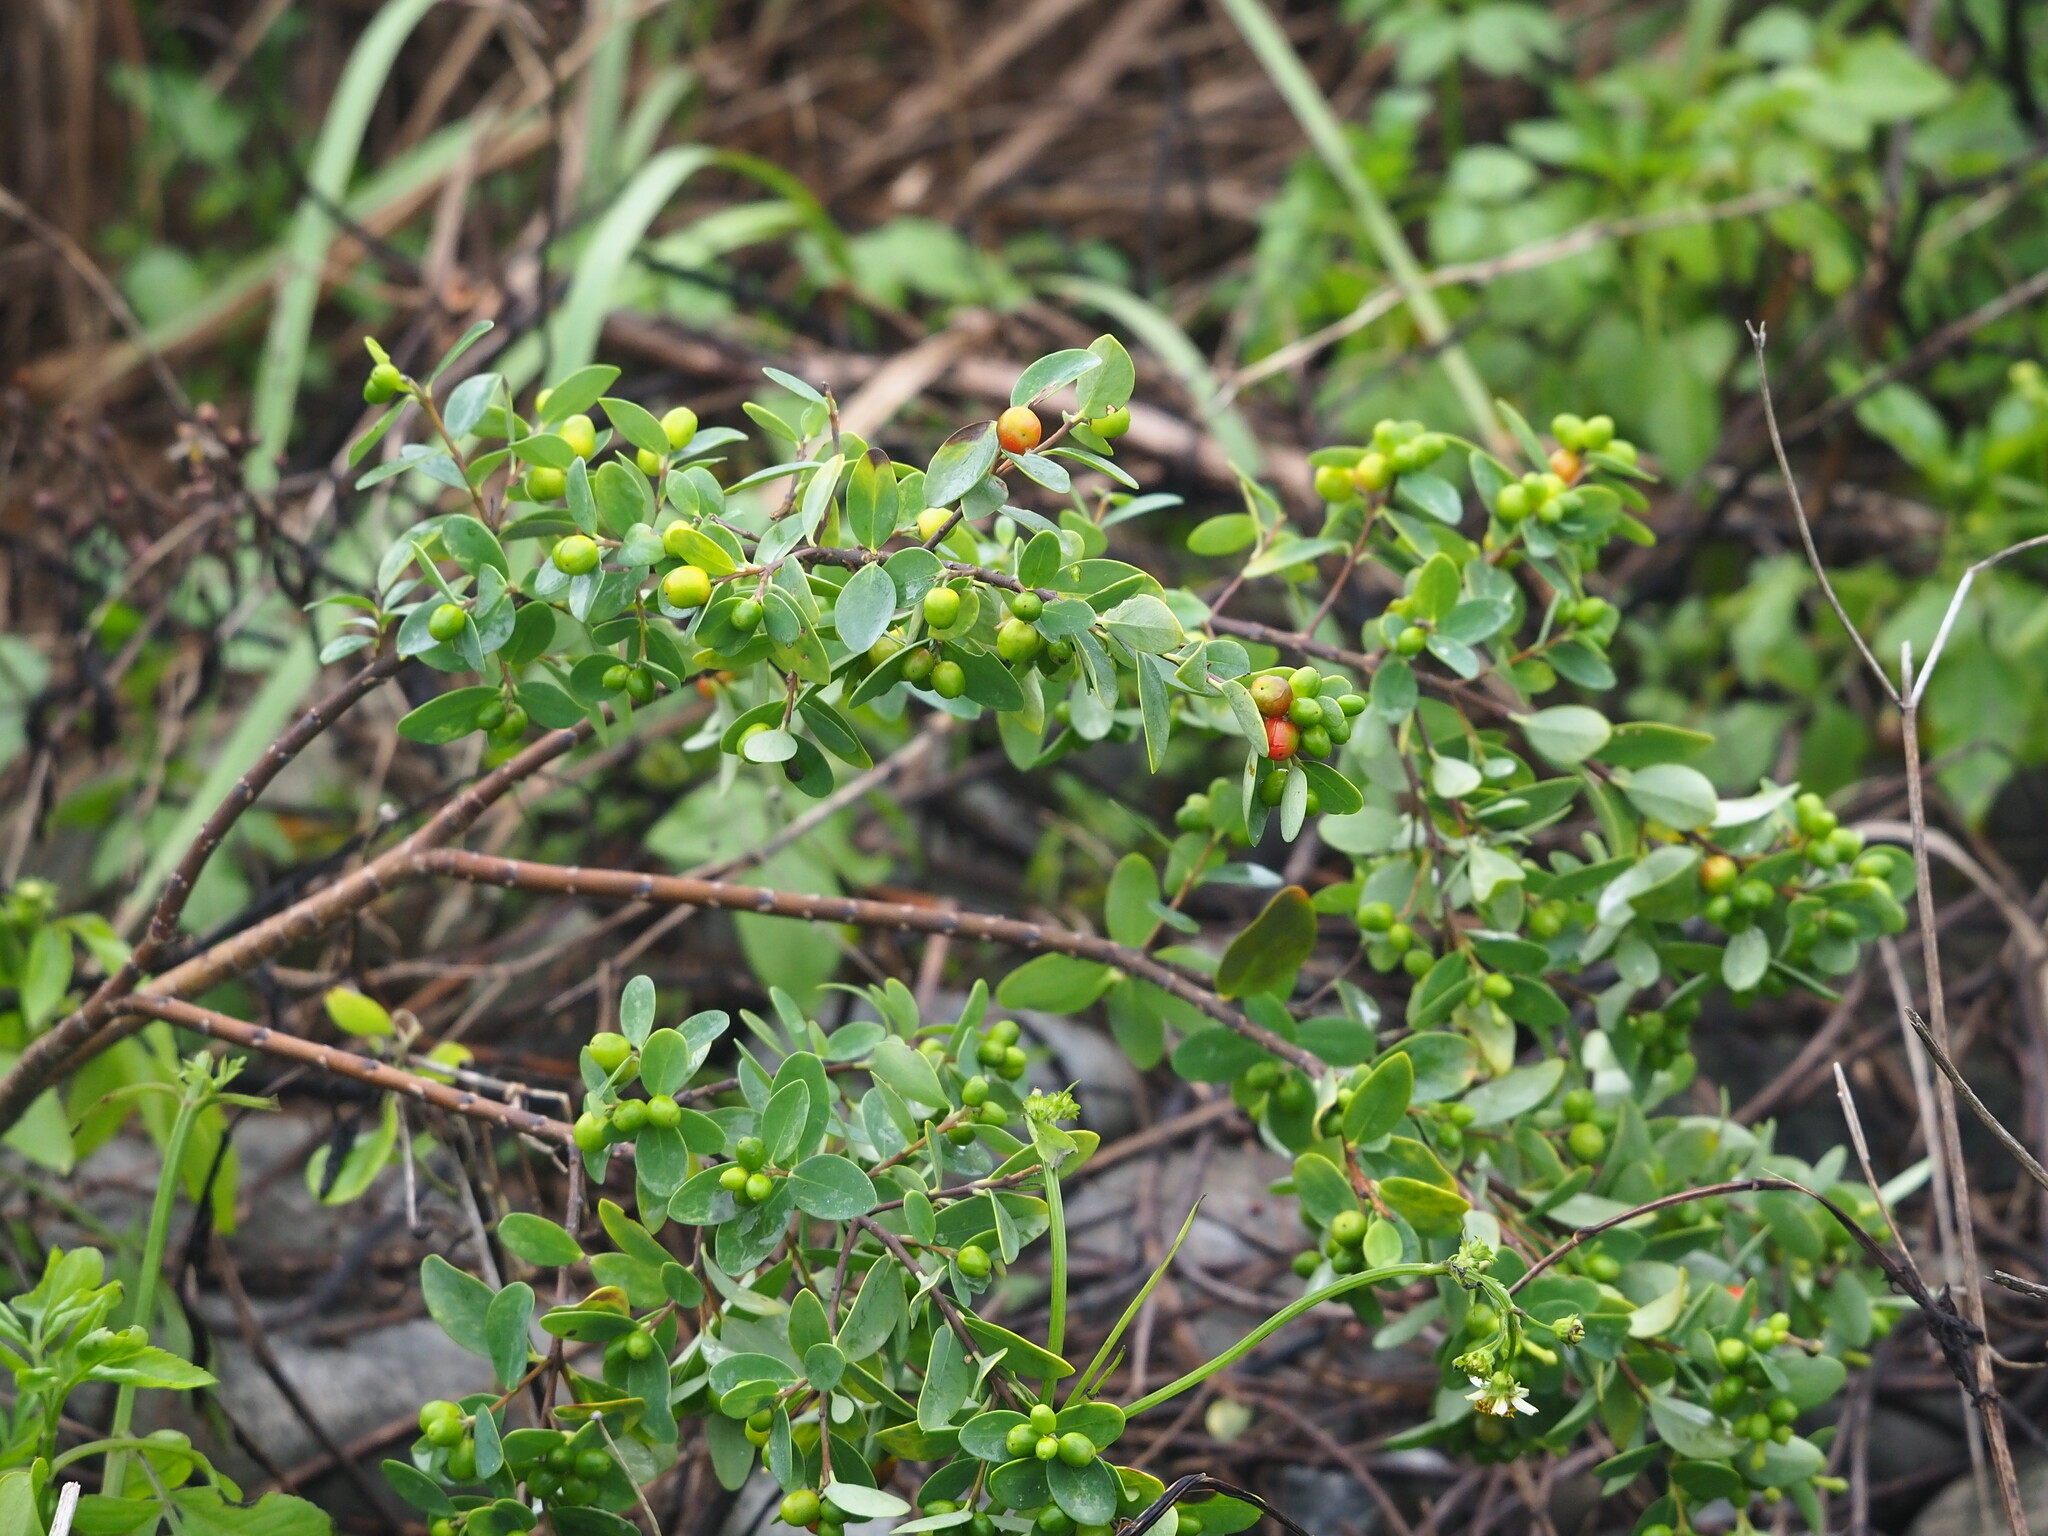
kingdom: Plantae
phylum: Tracheophyta
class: Magnoliopsida
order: Malvales
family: Thymelaeaceae
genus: Wikstroemia
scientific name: Wikstroemia indica
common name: Tiebush
